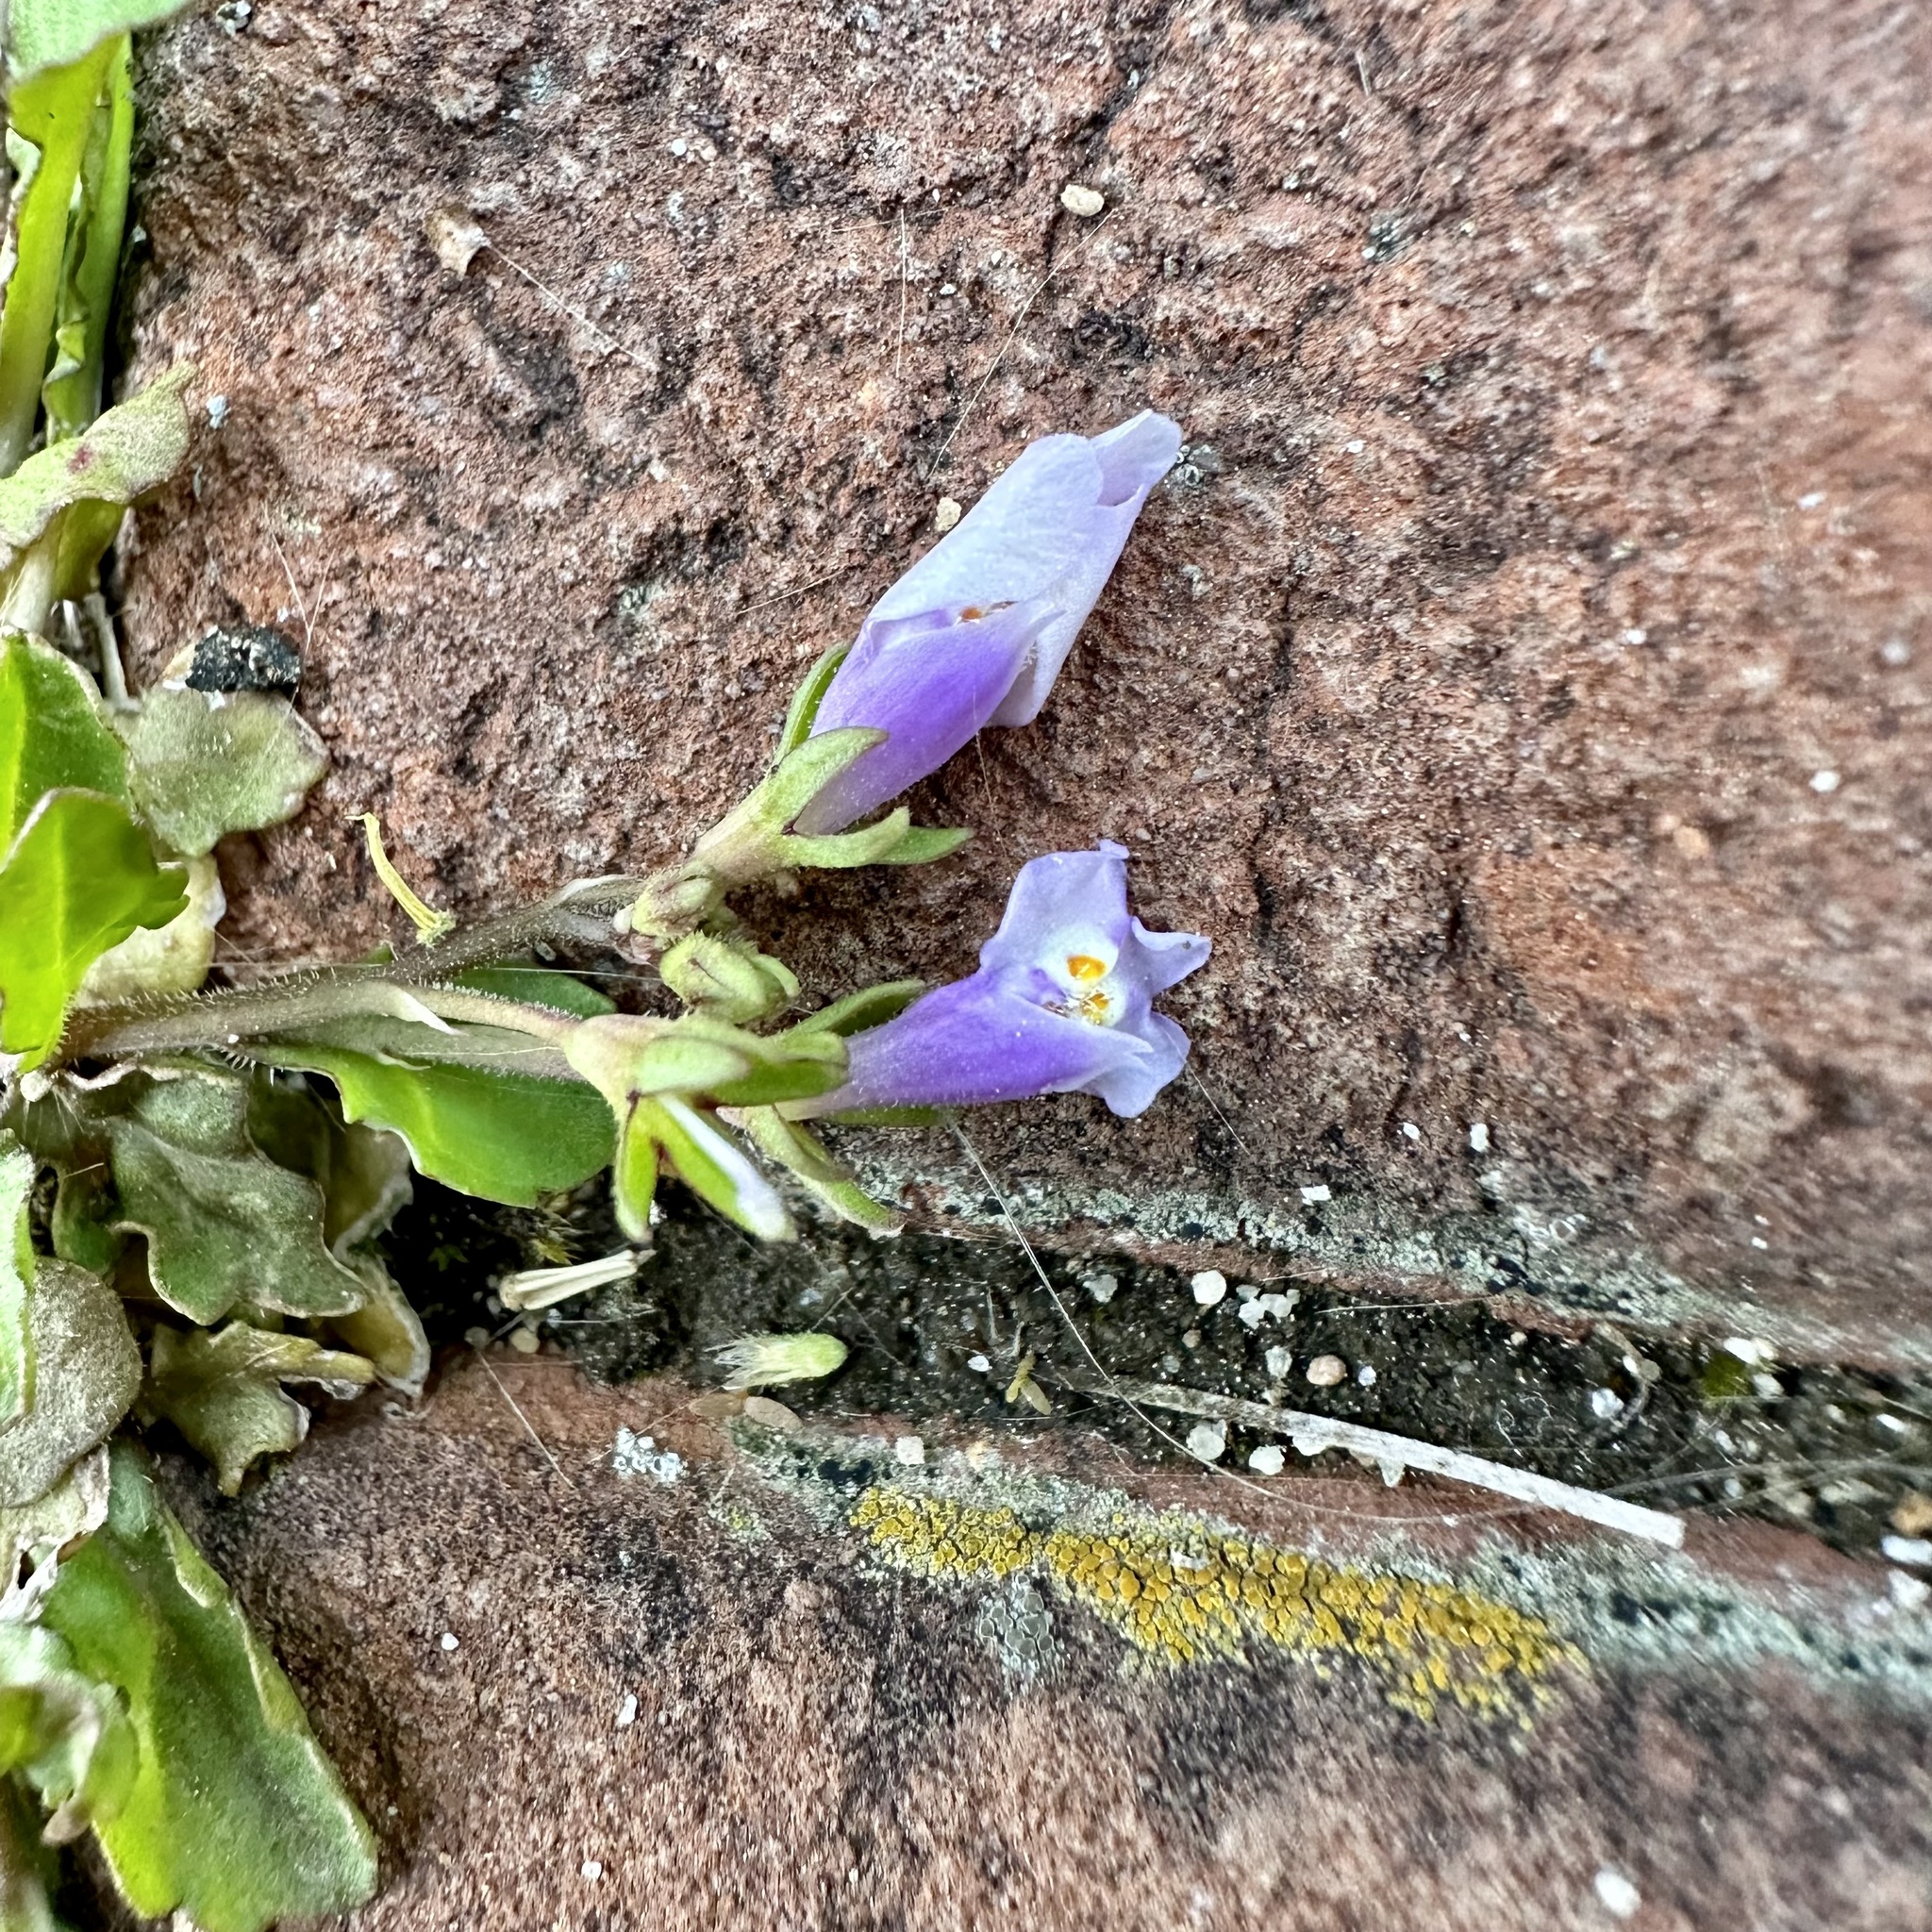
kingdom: Plantae
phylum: Tracheophyta
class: Magnoliopsida
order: Lamiales
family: Mazaceae
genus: Mazus
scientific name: Mazus pumilus
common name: Japanese mazus
